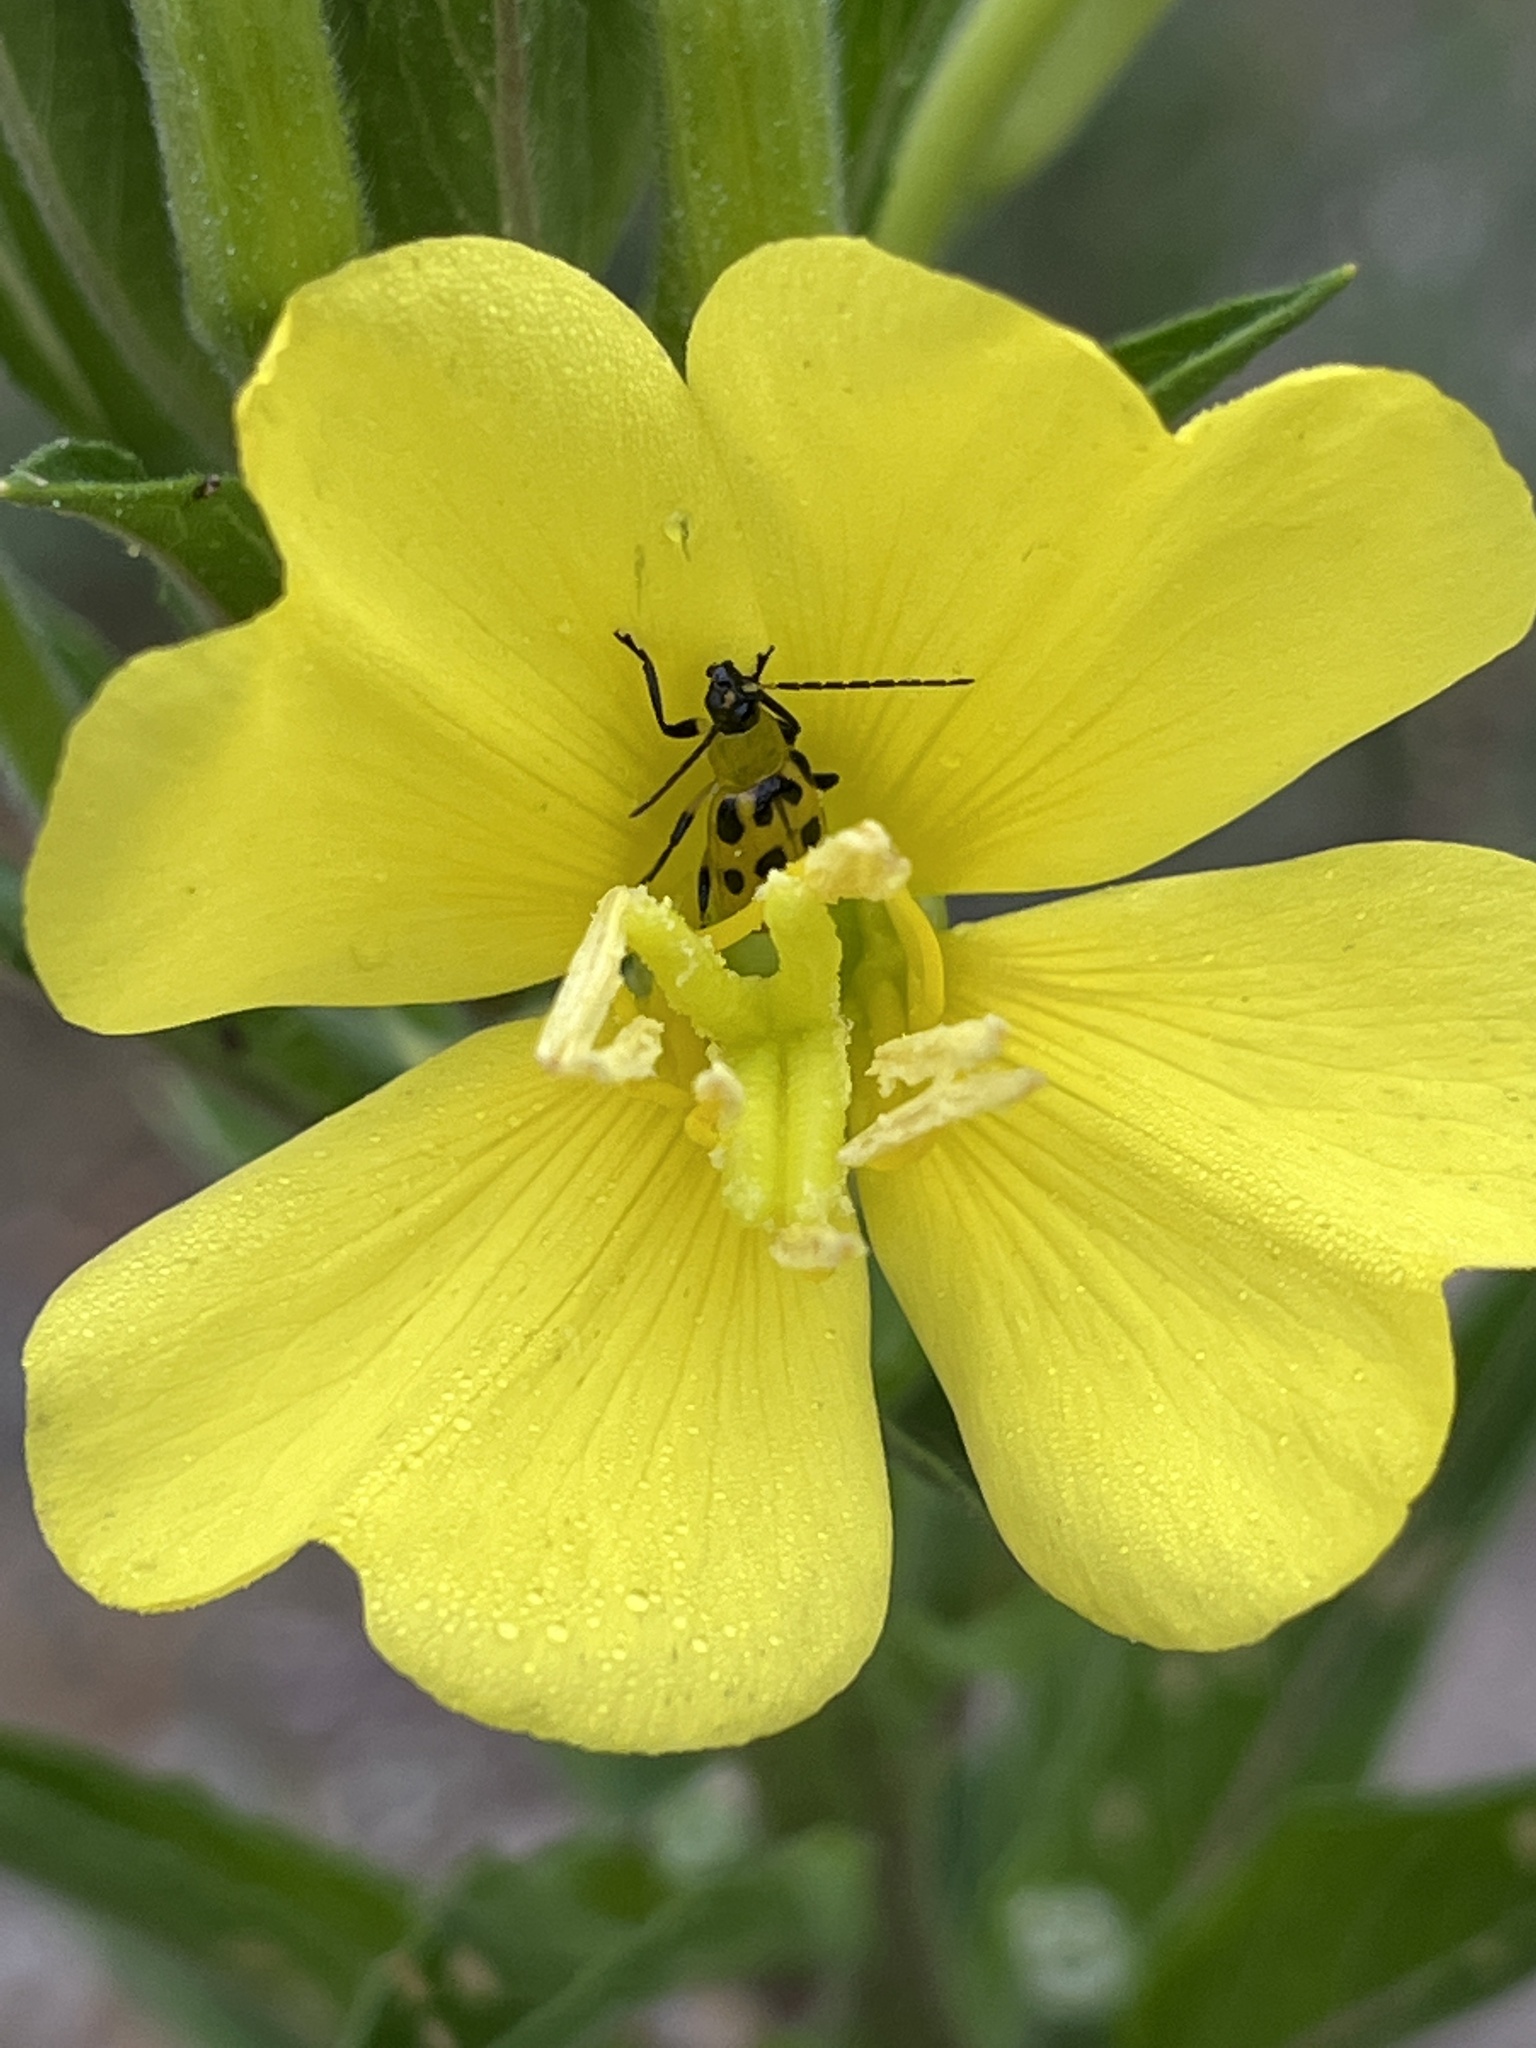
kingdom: Animalia
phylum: Arthropoda
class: Insecta
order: Coleoptera
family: Chrysomelidae
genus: Diabrotica
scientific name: Diabrotica undecimpunctata
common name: Spotted cucumber beetle
